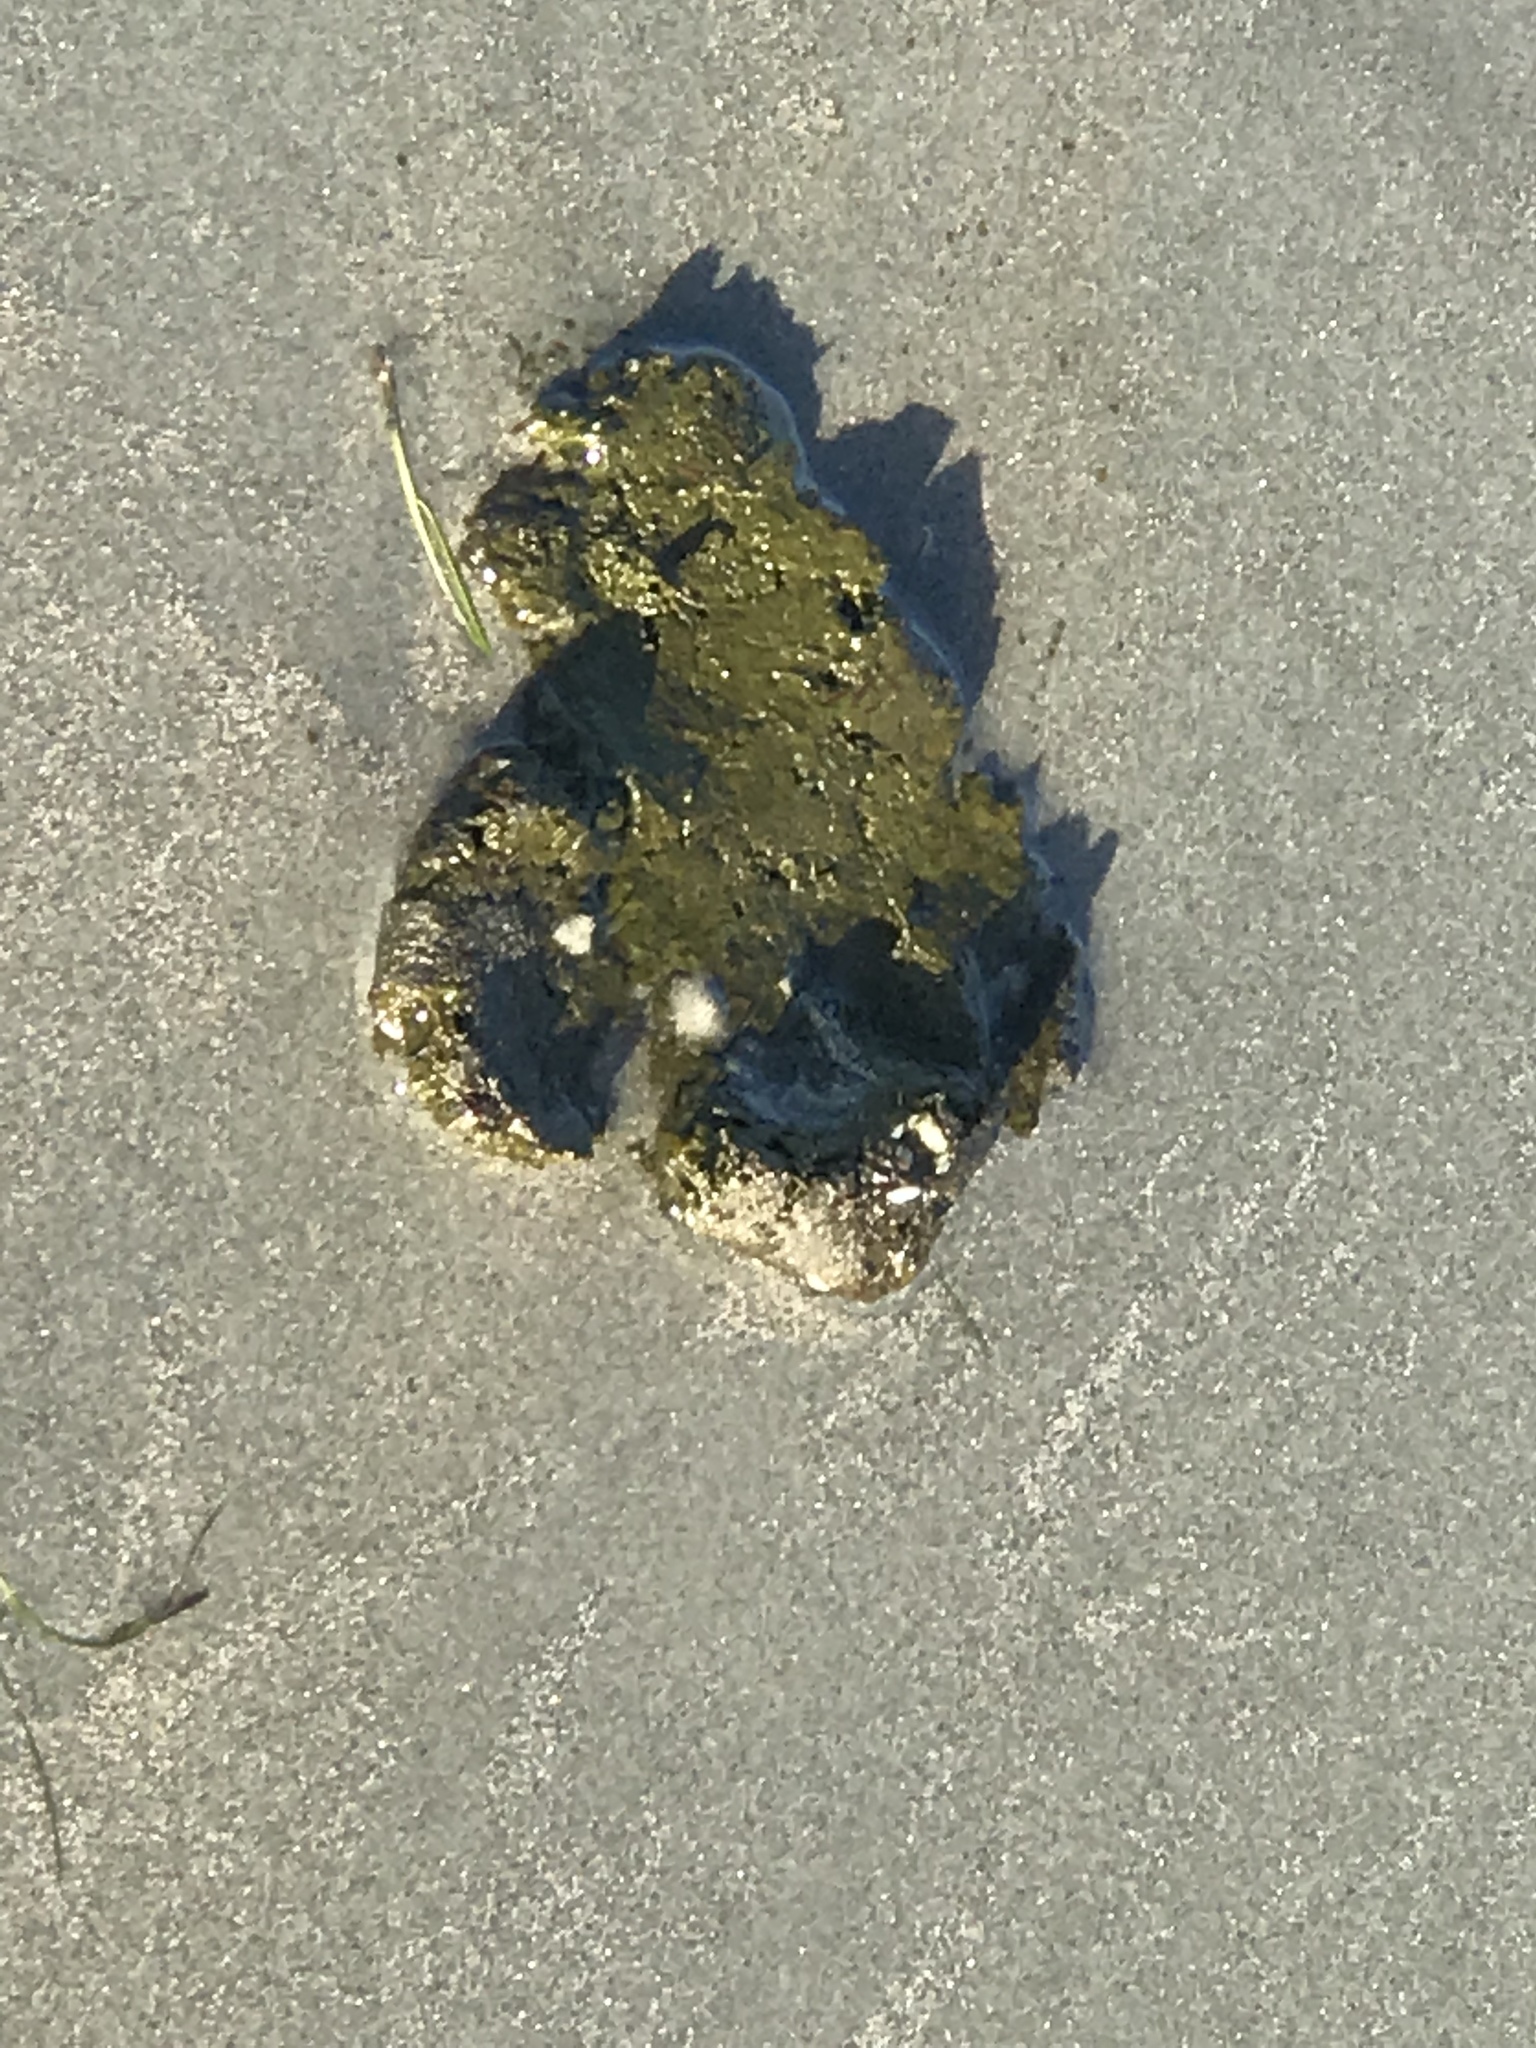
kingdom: Animalia
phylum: Chordata
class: Mammalia
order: Sirenia
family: Trichechidae
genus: Trichechus
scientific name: Trichechus manatus
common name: West indian manatee
